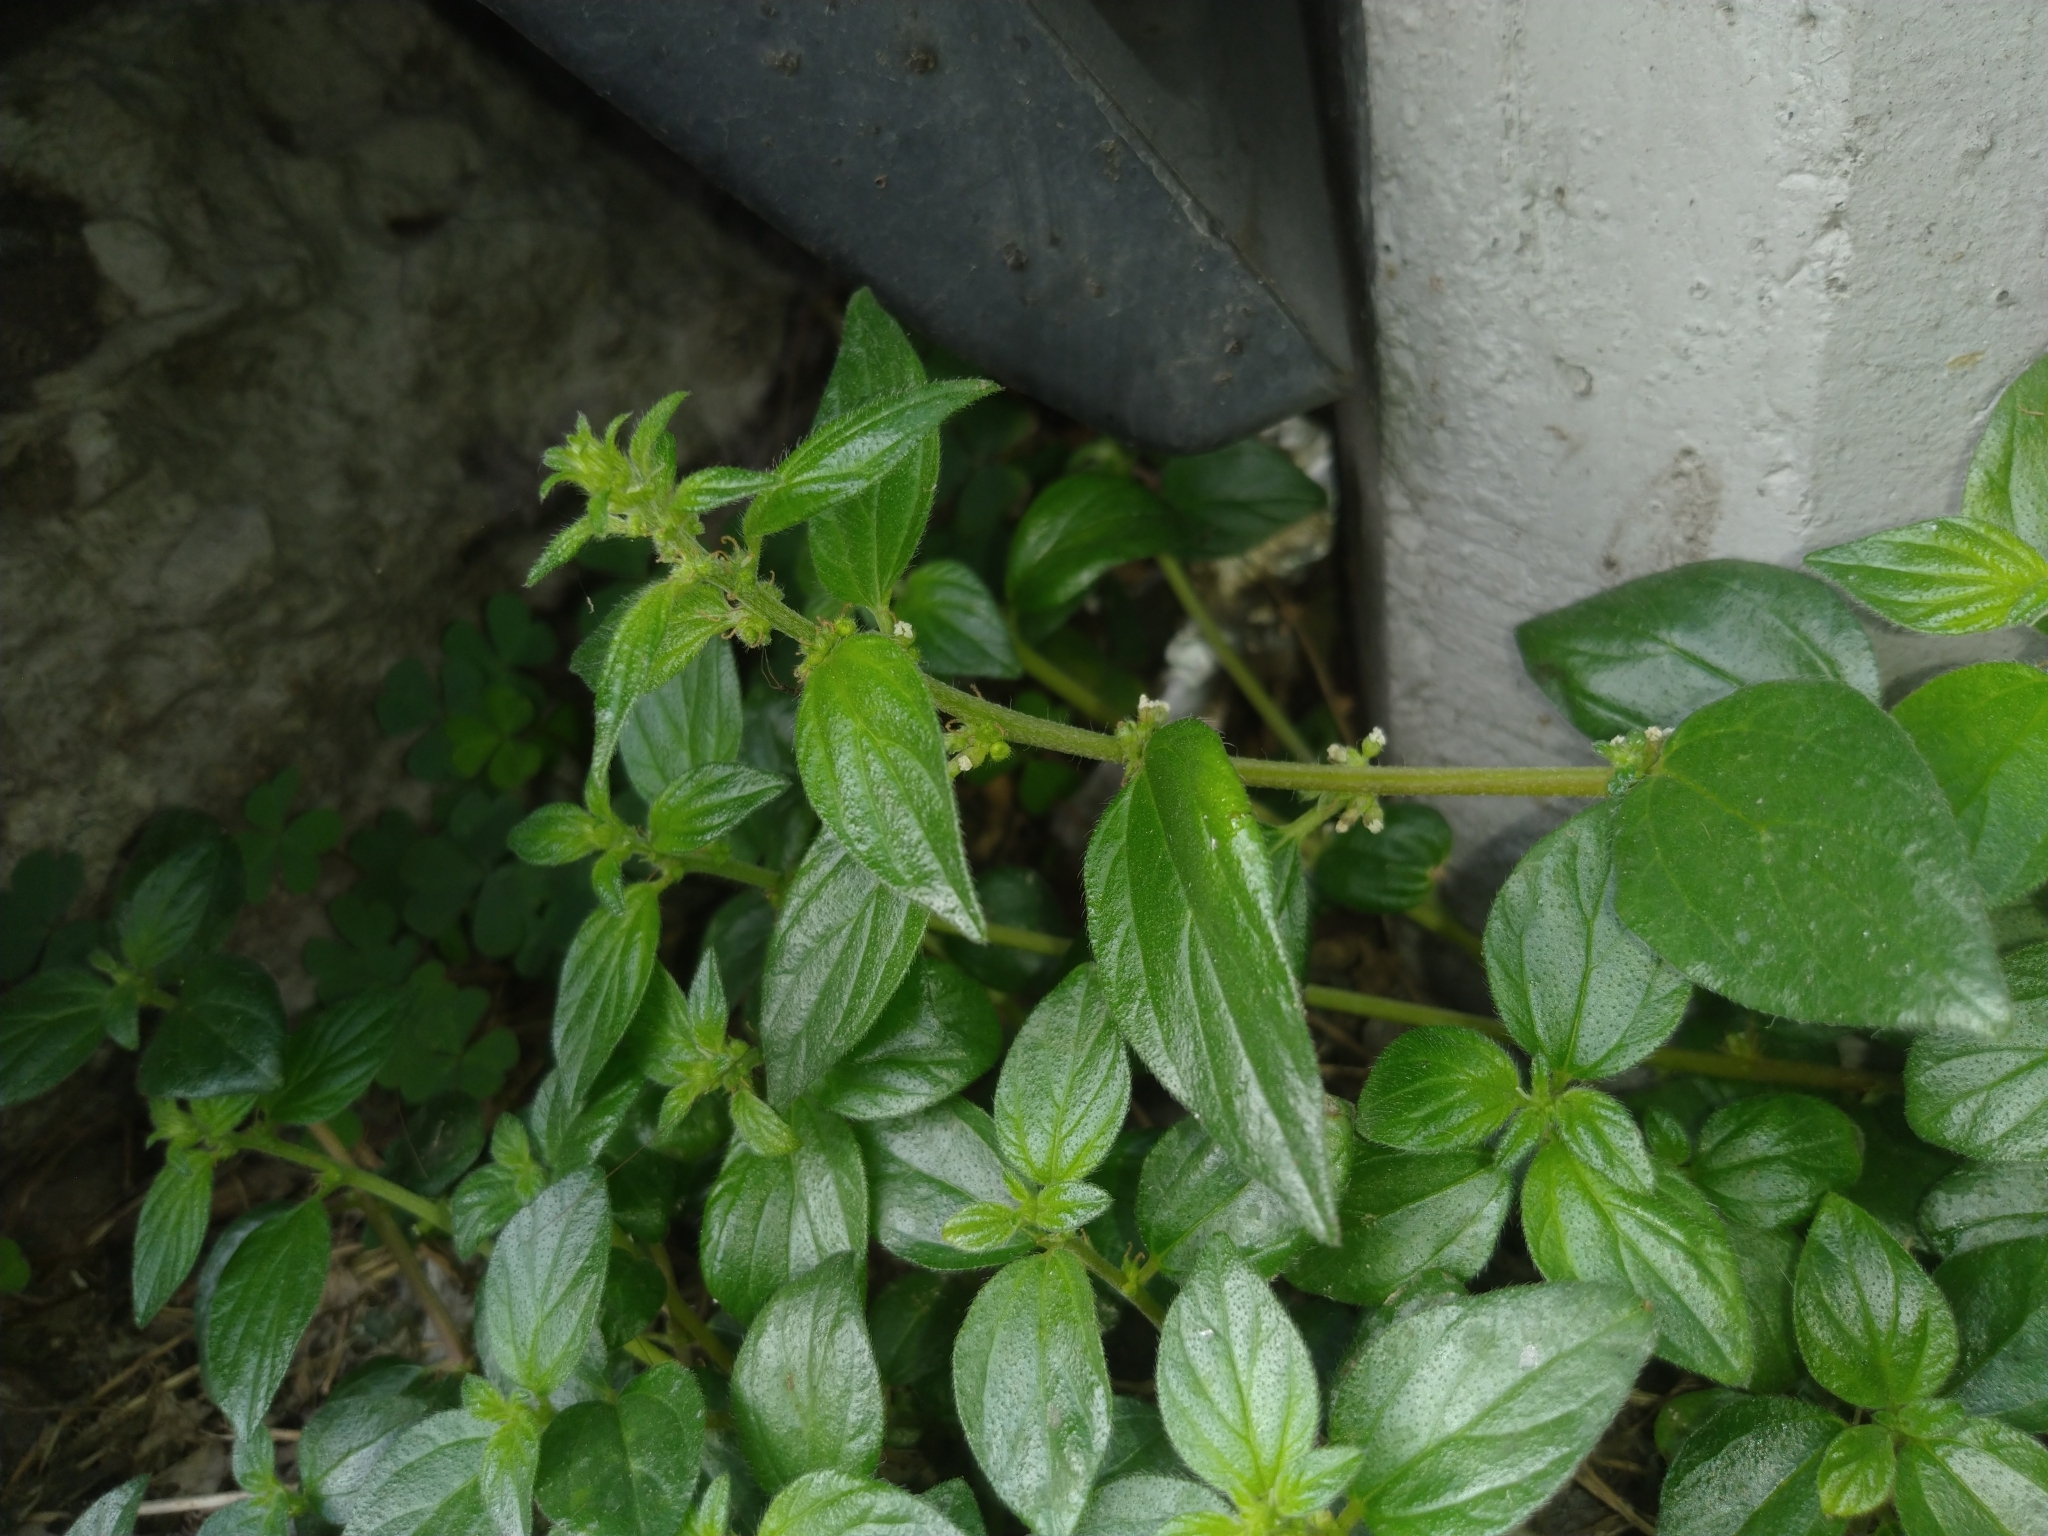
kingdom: Plantae
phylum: Tracheophyta
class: Magnoliopsida
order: Rosales
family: Urticaceae
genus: Pouzolzia
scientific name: Pouzolzia zeylanica
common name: Graceful pouzolzsbush
